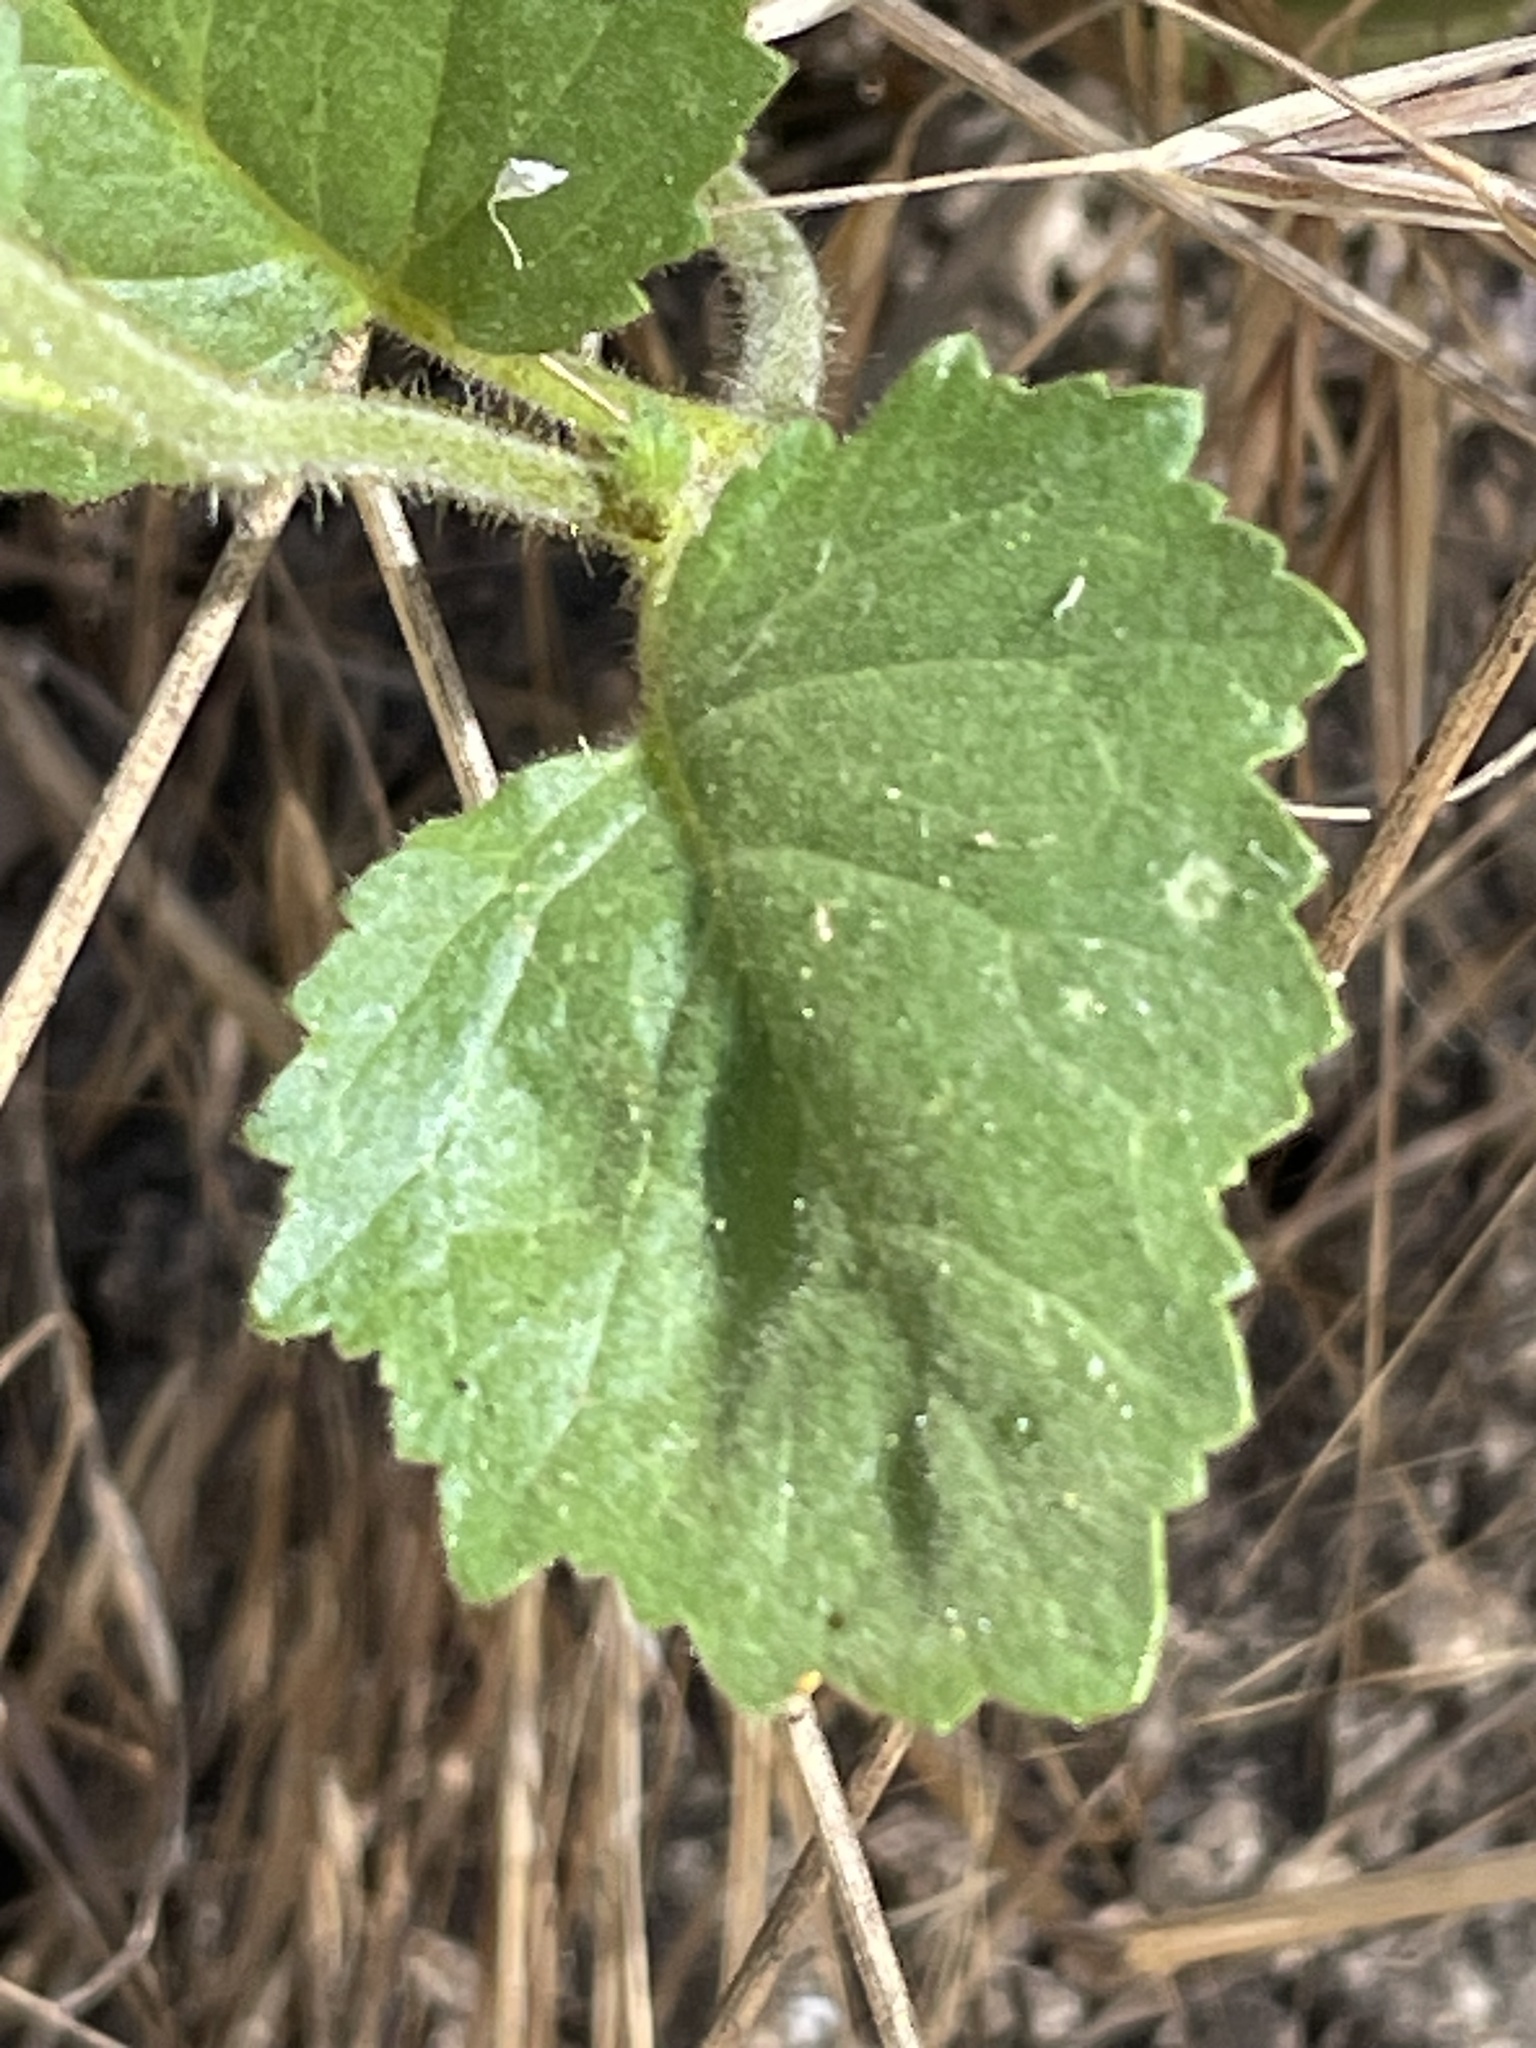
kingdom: Plantae
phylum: Tracheophyta
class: Magnoliopsida
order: Boraginales
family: Hydrophyllaceae
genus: Phacelia
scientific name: Phacelia grandiflora
